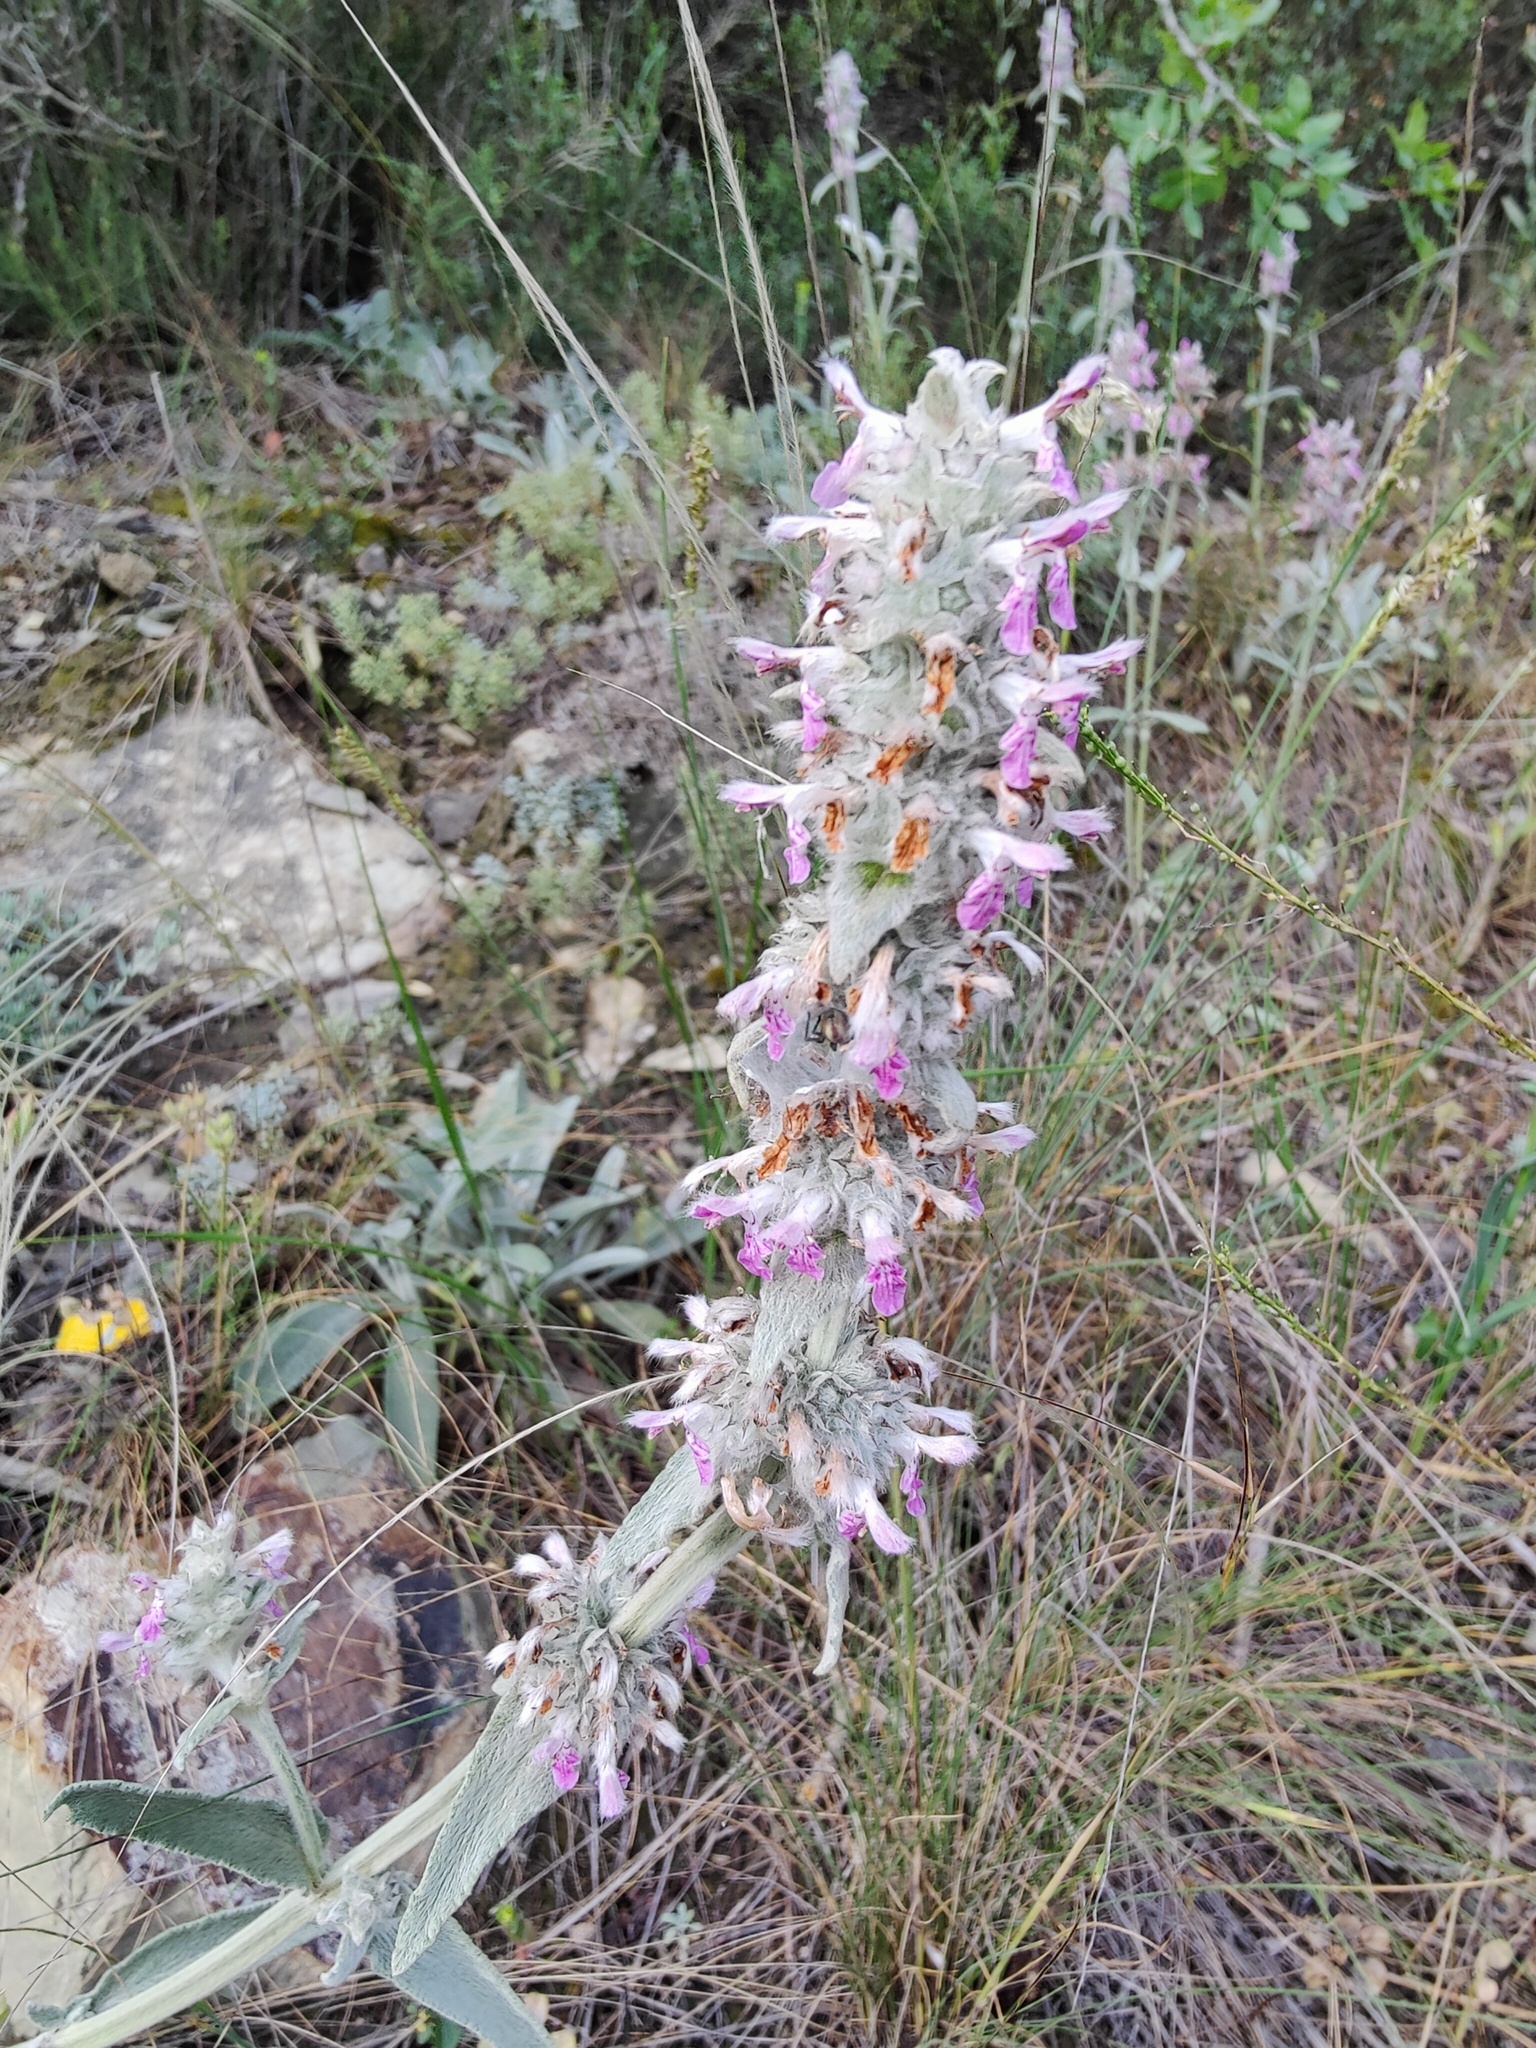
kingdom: Plantae
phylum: Tracheophyta
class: Magnoliopsida
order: Lamiales
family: Lamiaceae
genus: Stachys
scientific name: Stachys cretica
